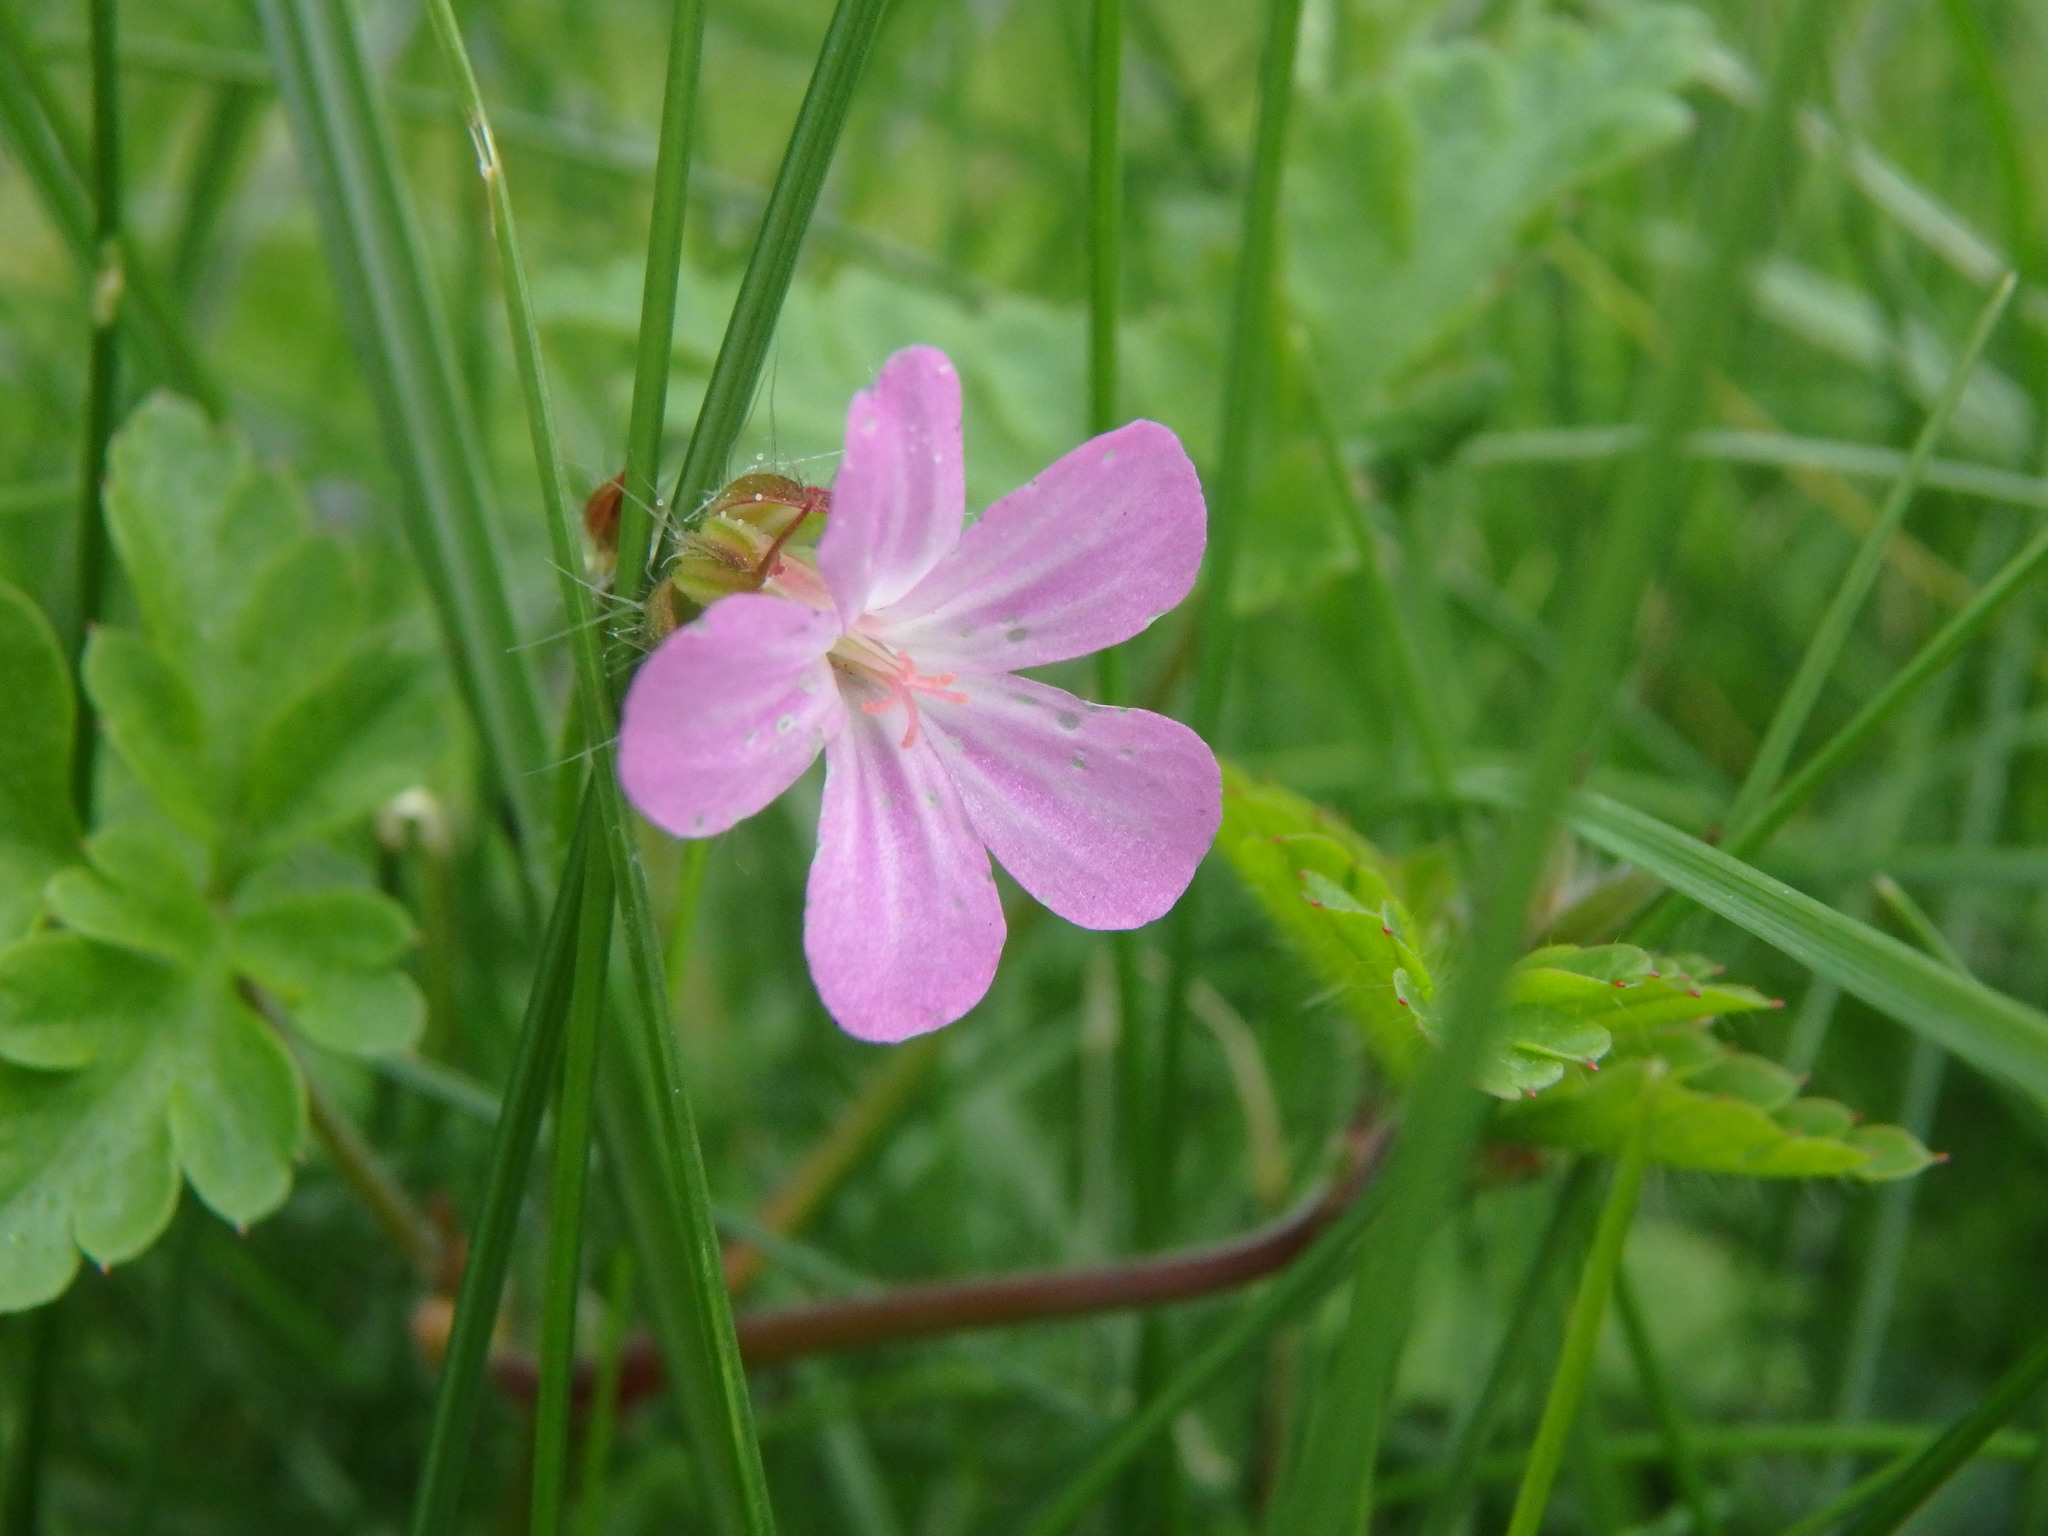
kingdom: Plantae
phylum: Tracheophyta
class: Magnoliopsida
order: Geraniales
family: Geraniaceae
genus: Geranium
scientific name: Geranium robertianum
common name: Herb-robert
